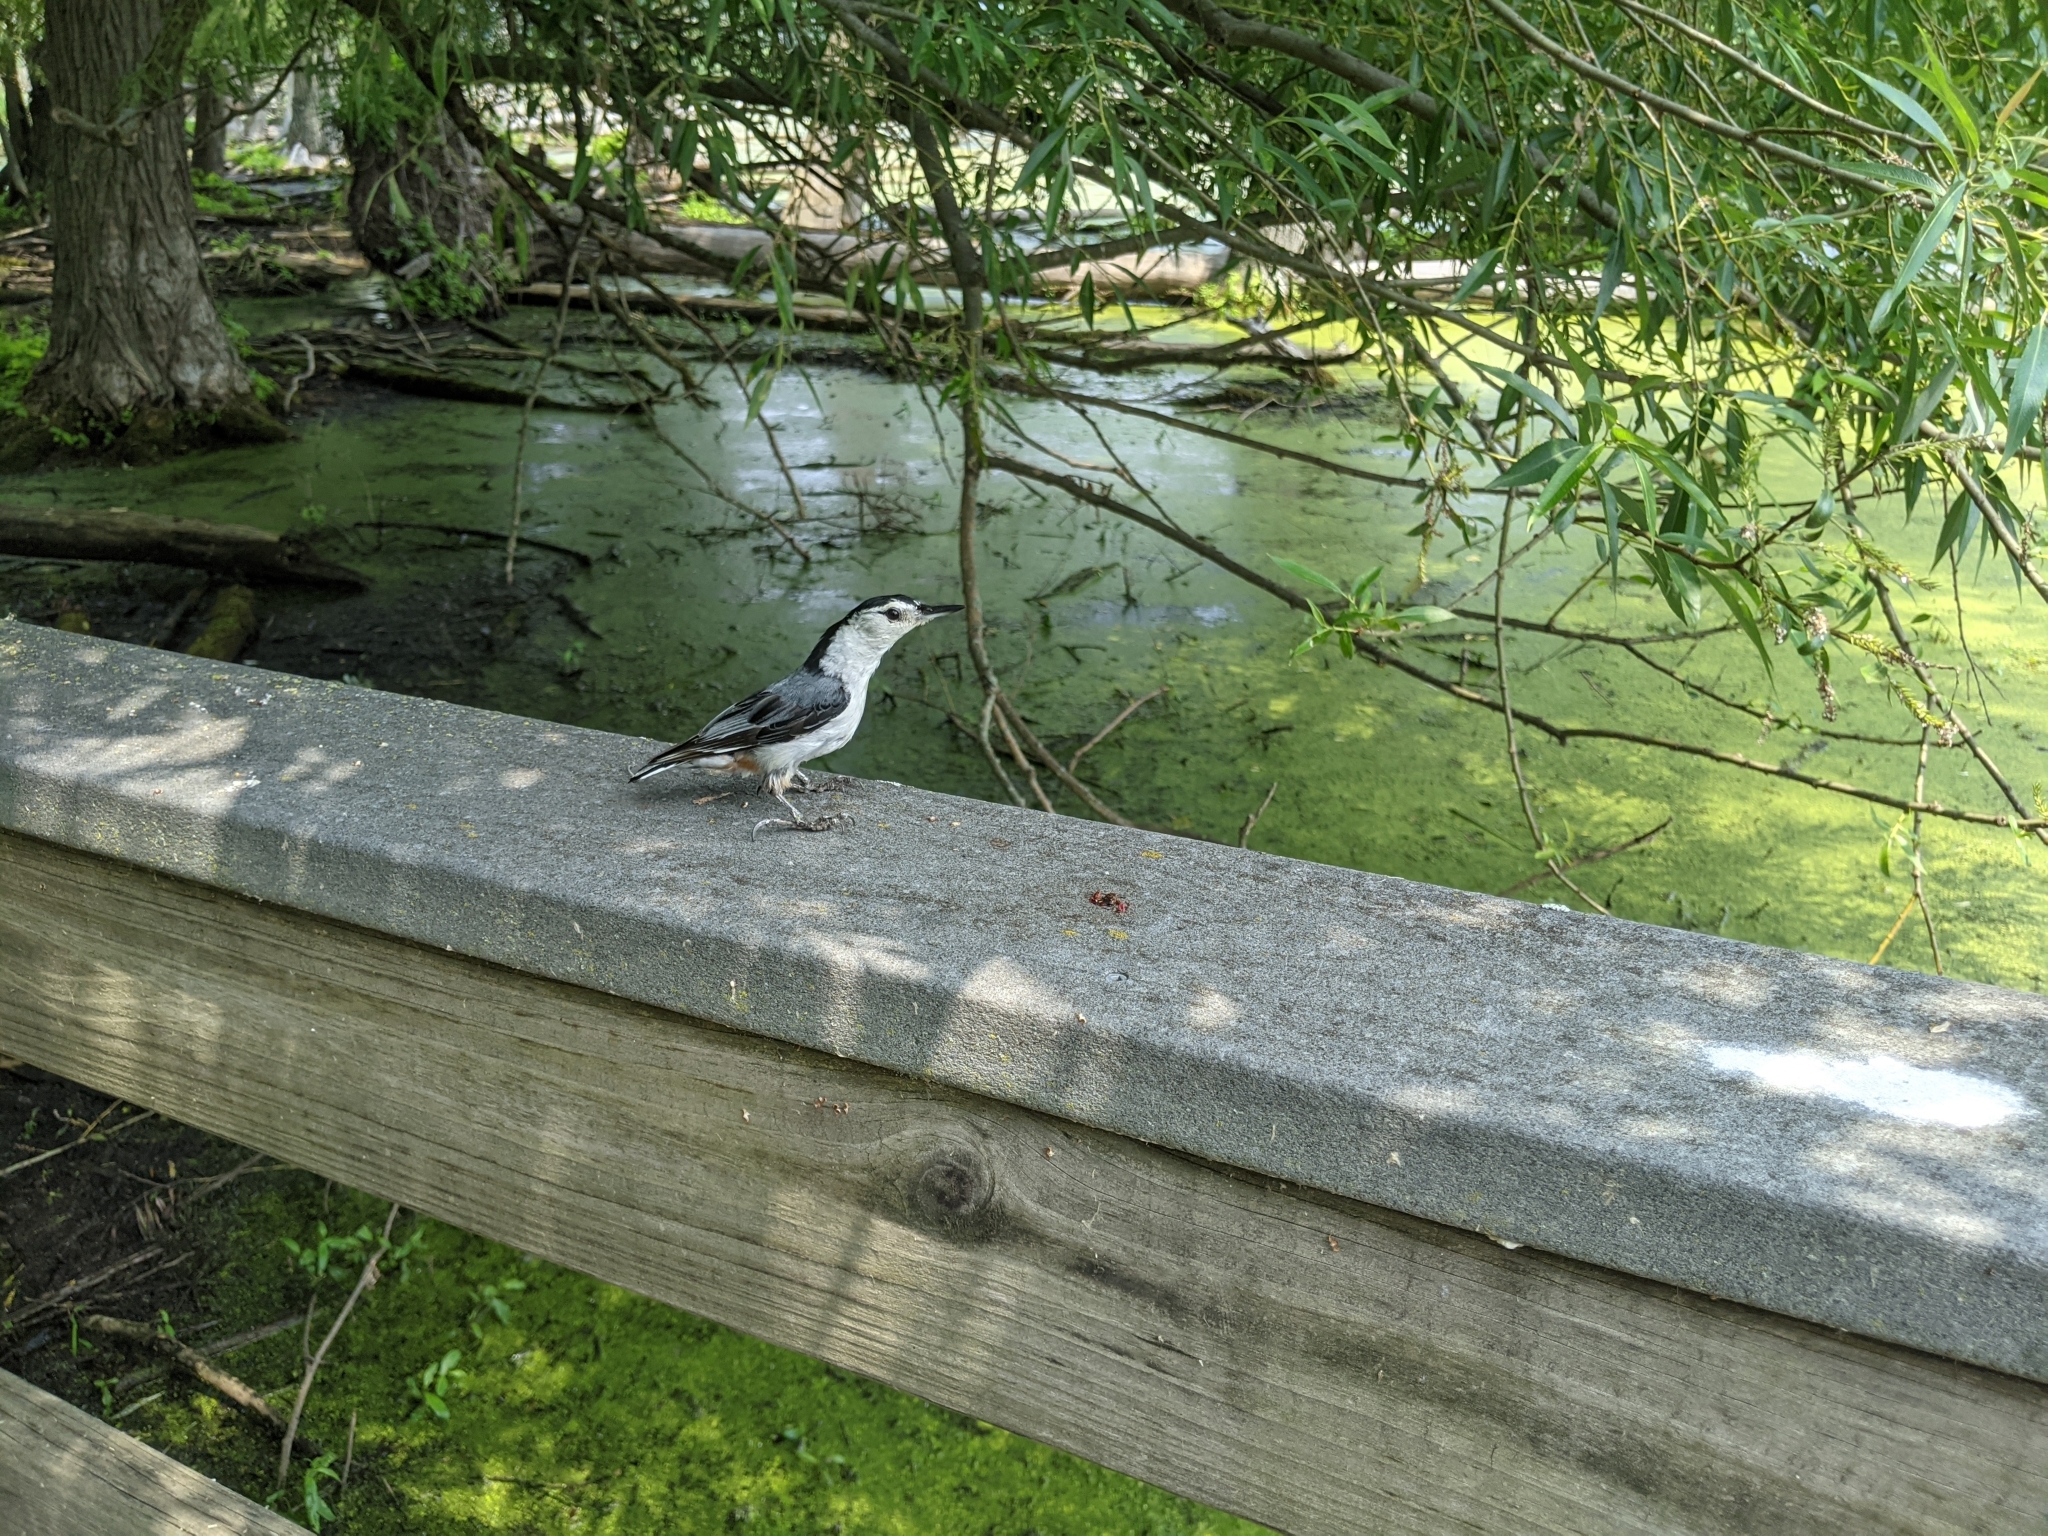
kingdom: Animalia
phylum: Chordata
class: Aves
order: Passeriformes
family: Sittidae
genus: Sitta
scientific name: Sitta carolinensis
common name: White-breasted nuthatch
